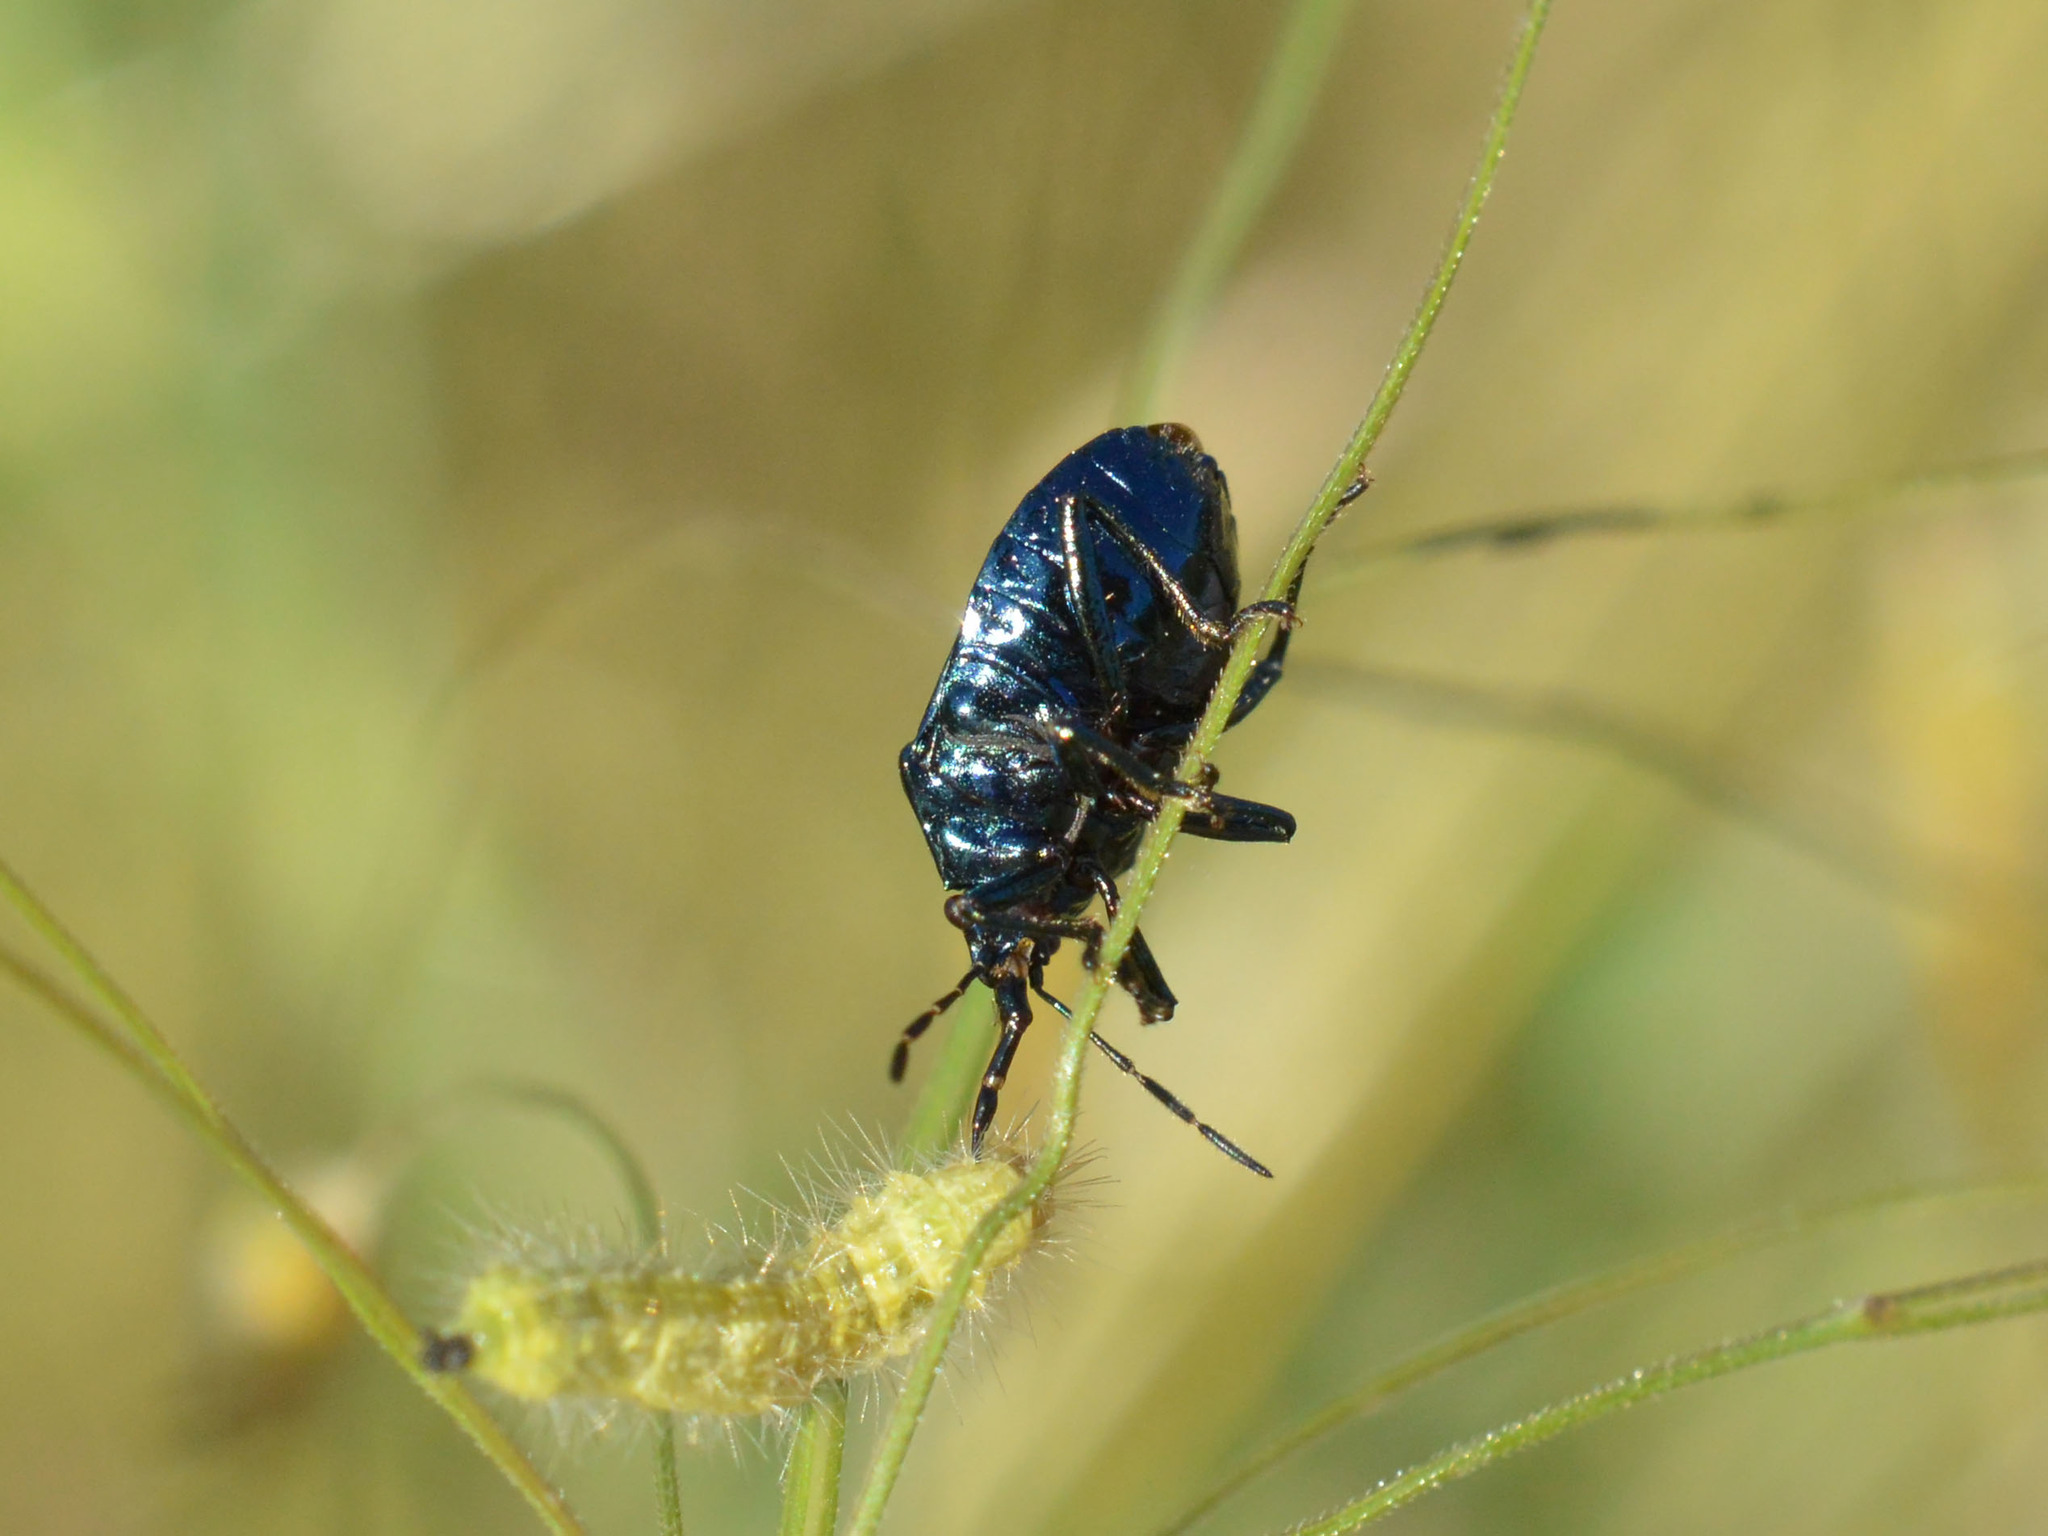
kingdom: Animalia
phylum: Arthropoda
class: Insecta
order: Hemiptera
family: Pentatomidae
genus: Zicrona
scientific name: Zicrona caerulea
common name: Blue shieldbug
